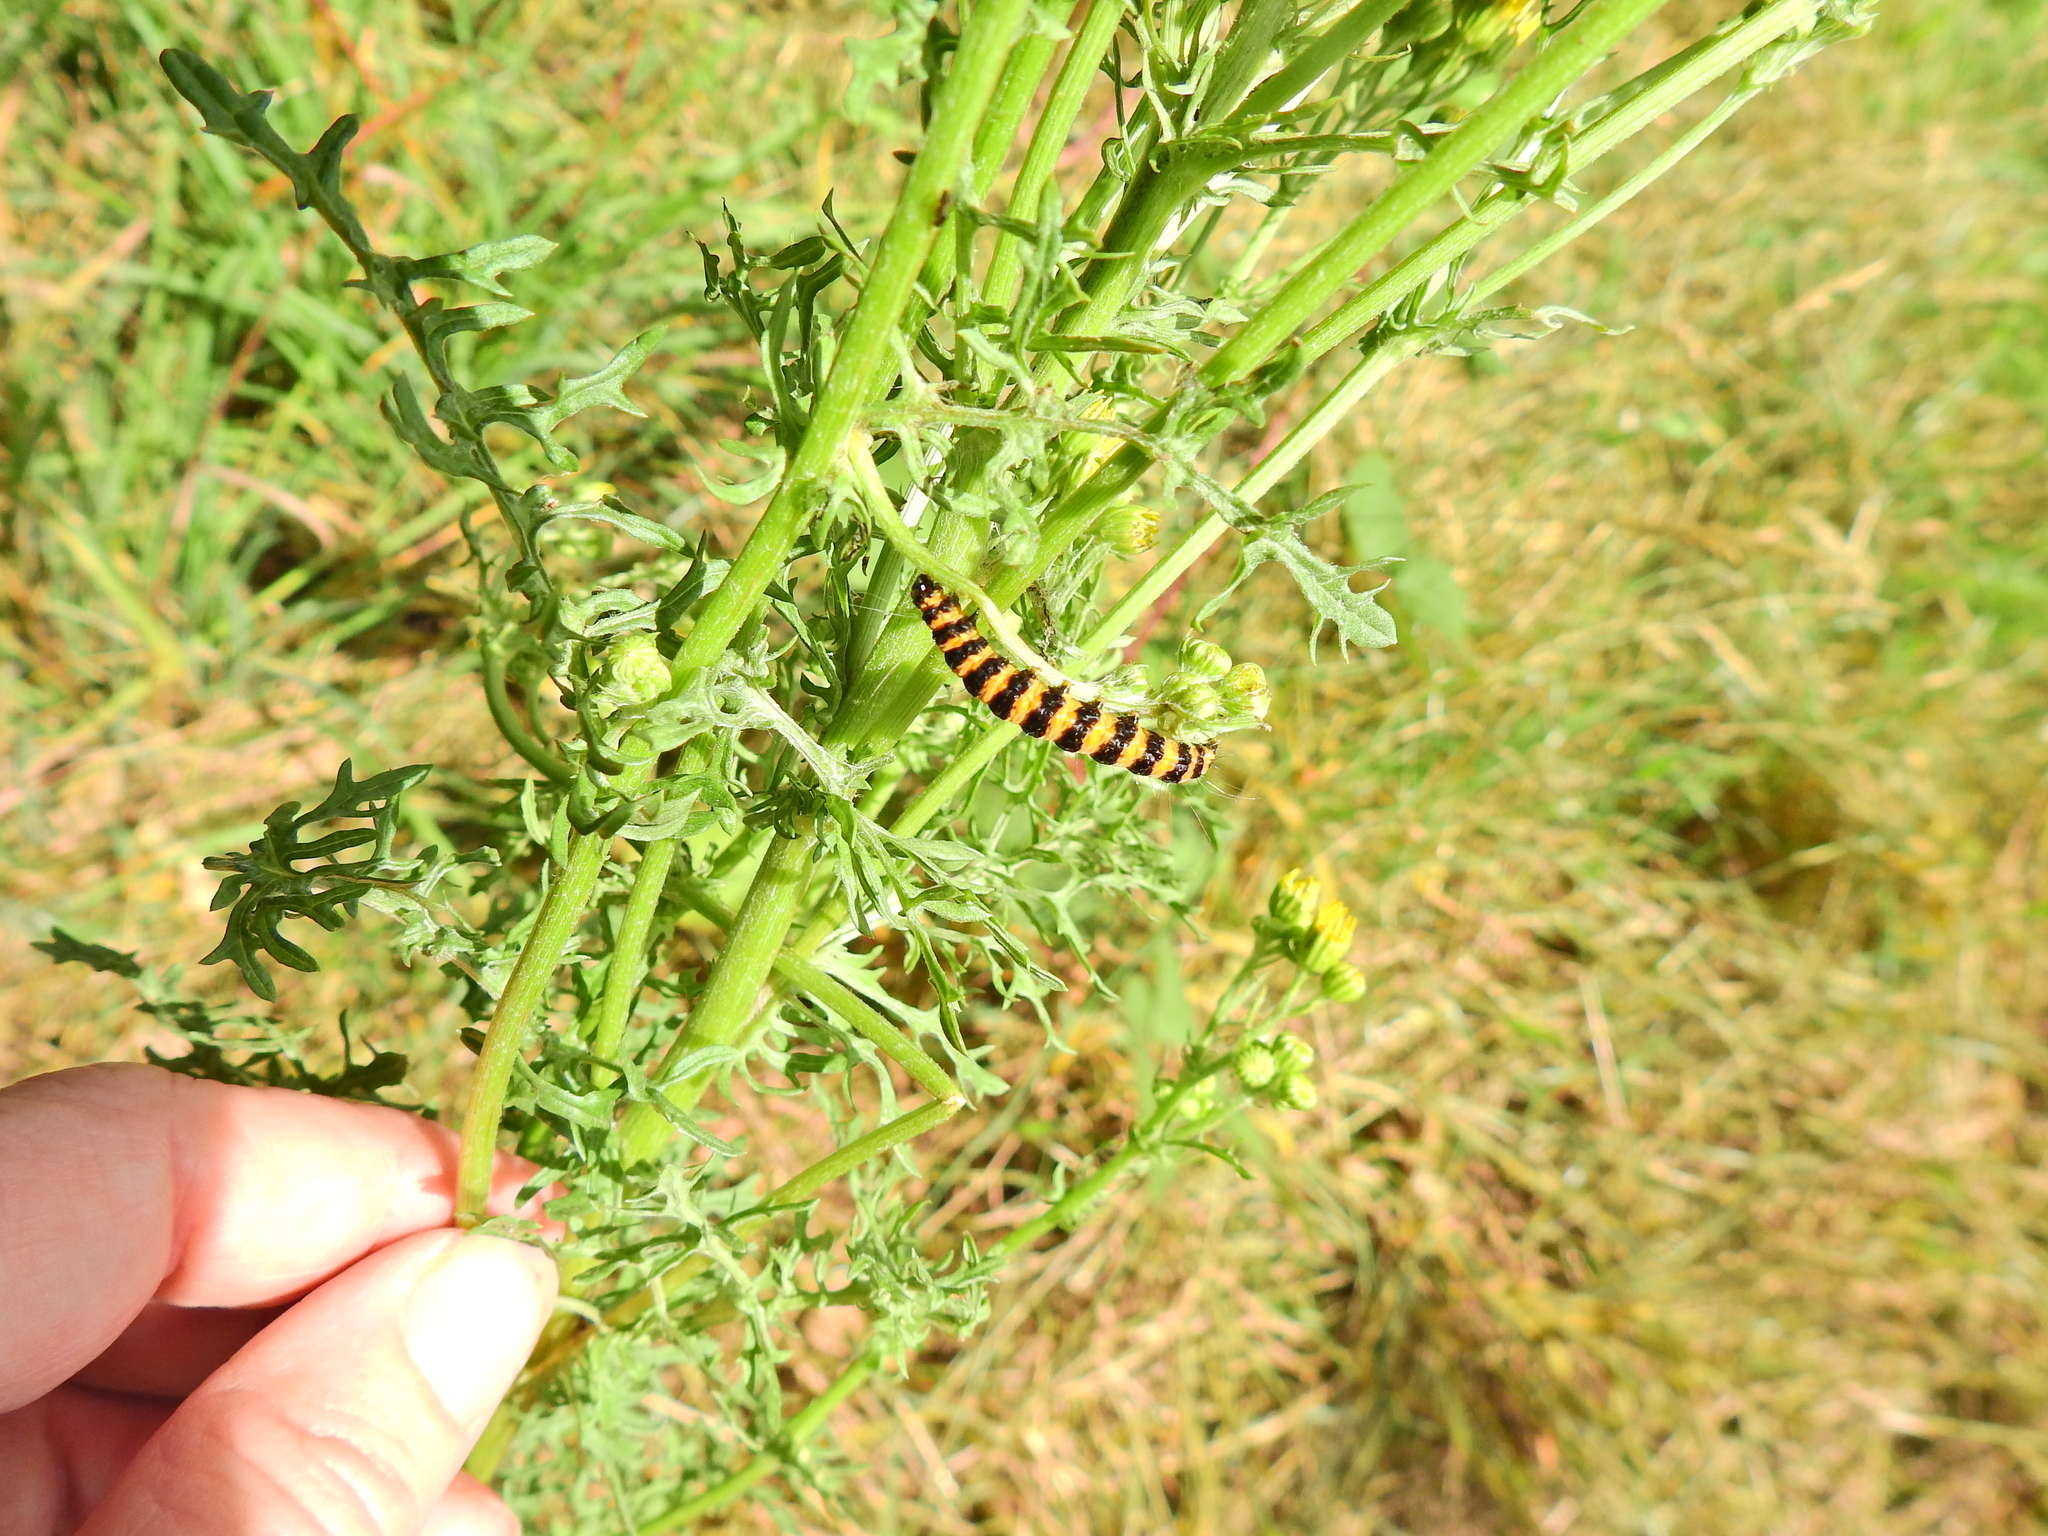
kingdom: Animalia
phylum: Arthropoda
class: Insecta
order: Lepidoptera
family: Erebidae
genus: Tyria
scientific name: Tyria jacobaeae
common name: Cinnabar
